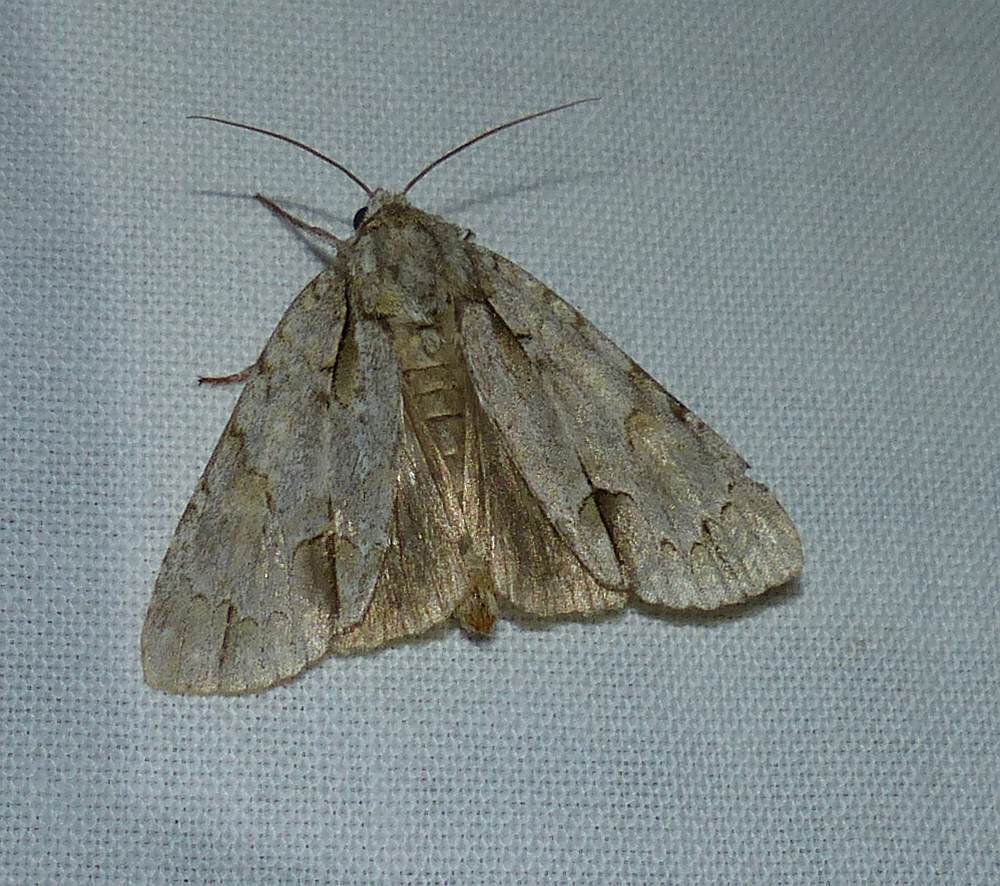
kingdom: Animalia
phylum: Arthropoda
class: Insecta
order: Lepidoptera
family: Noctuidae
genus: Acronicta
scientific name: Acronicta morula
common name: Ochre dagger
